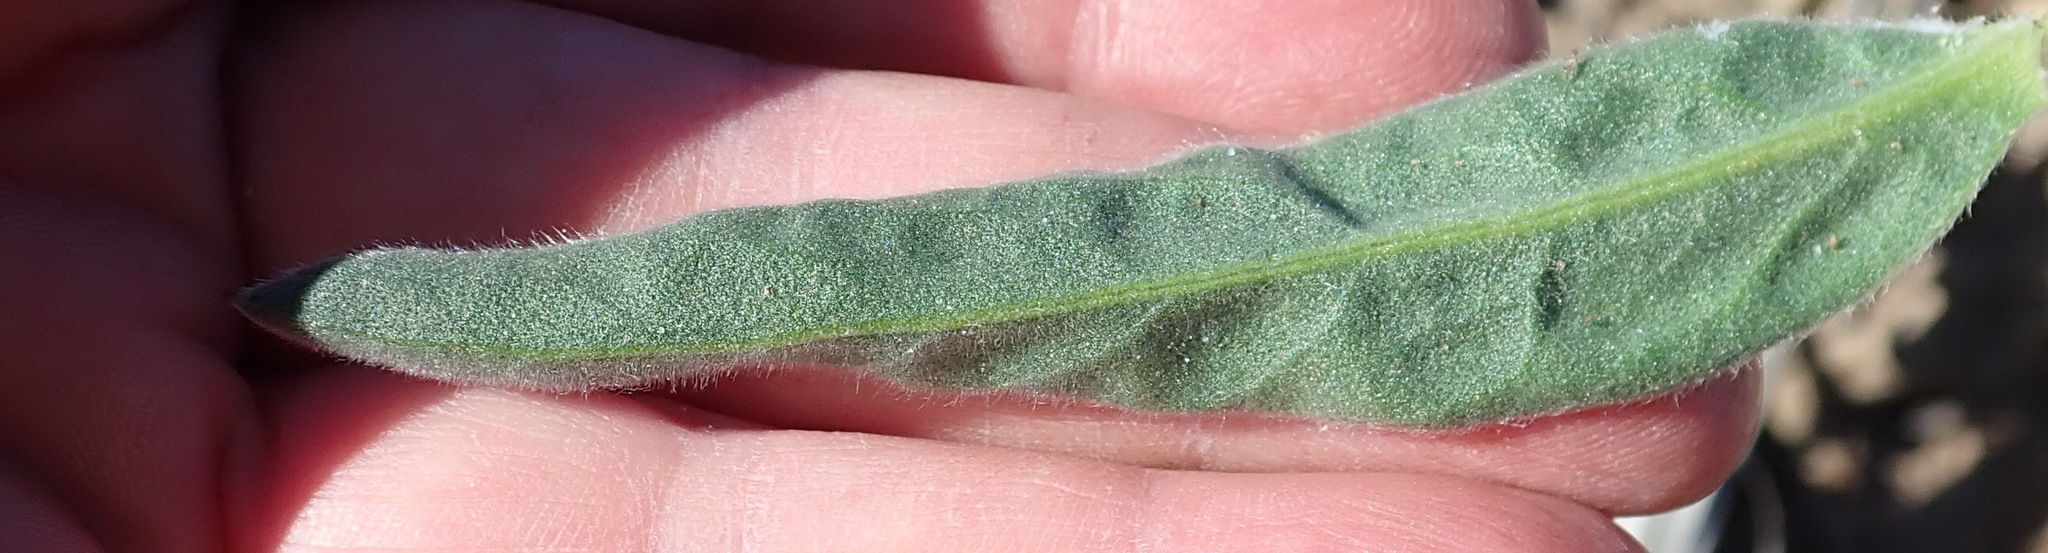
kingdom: Plantae
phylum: Tracheophyta
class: Magnoliopsida
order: Asterales
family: Asteraceae
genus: Schistostephium
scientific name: Schistostephium umbellatum
